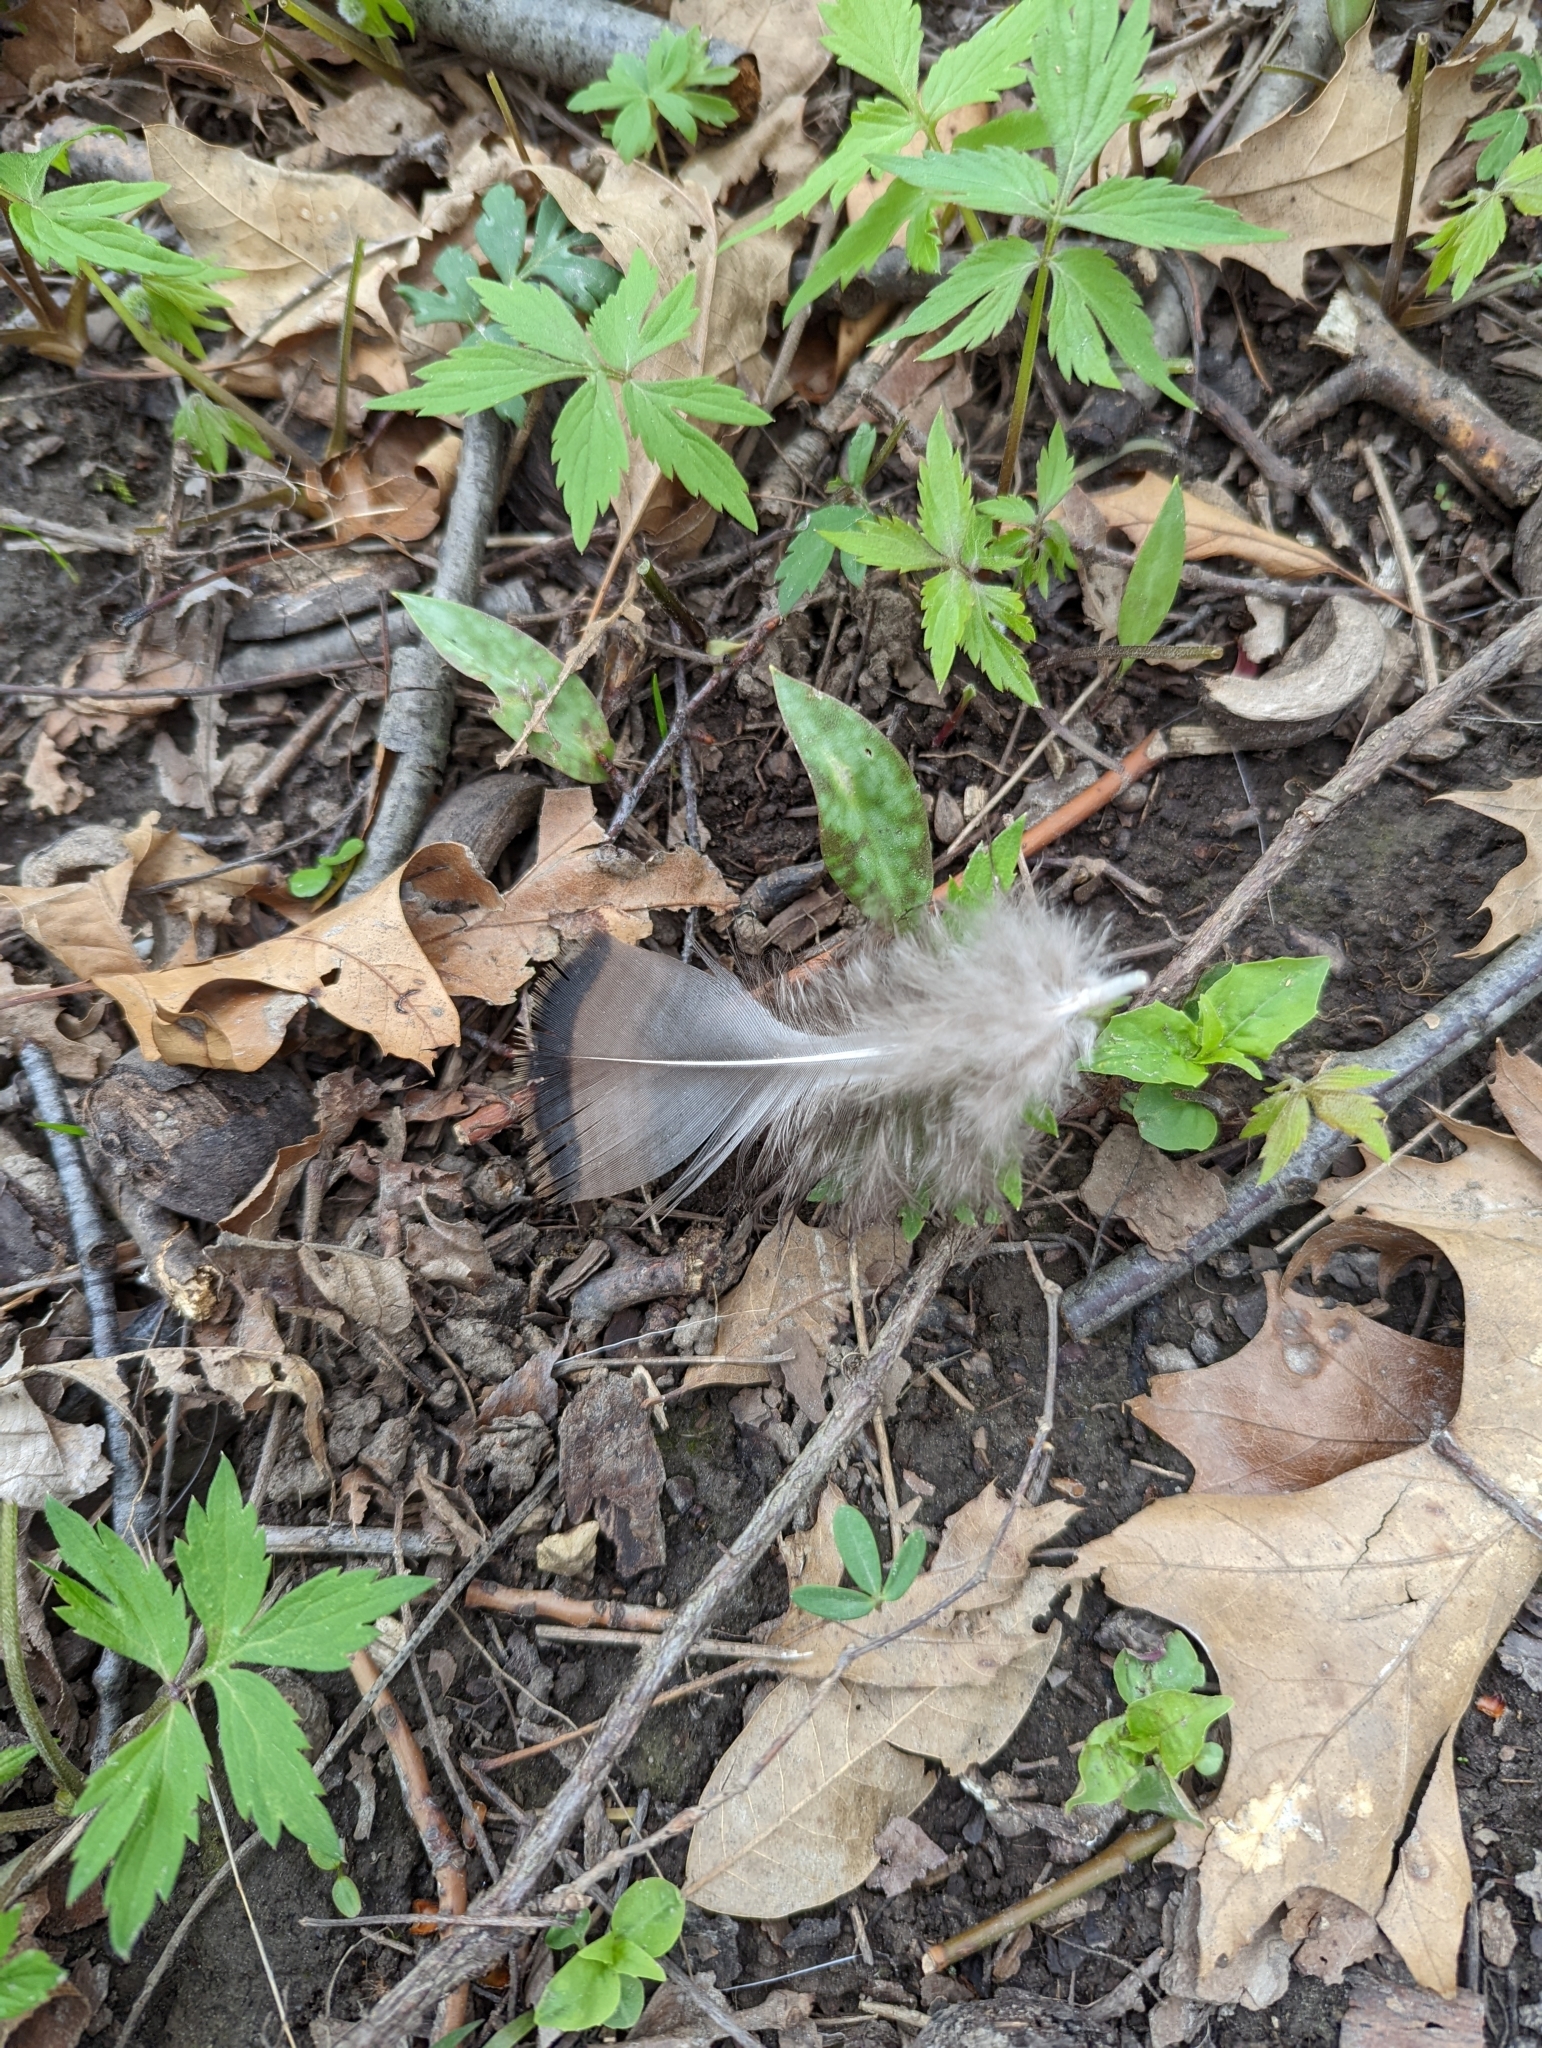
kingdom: Animalia
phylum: Chordata
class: Aves
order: Galliformes
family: Phasianidae
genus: Meleagris
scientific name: Meleagris gallopavo
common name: Wild turkey
